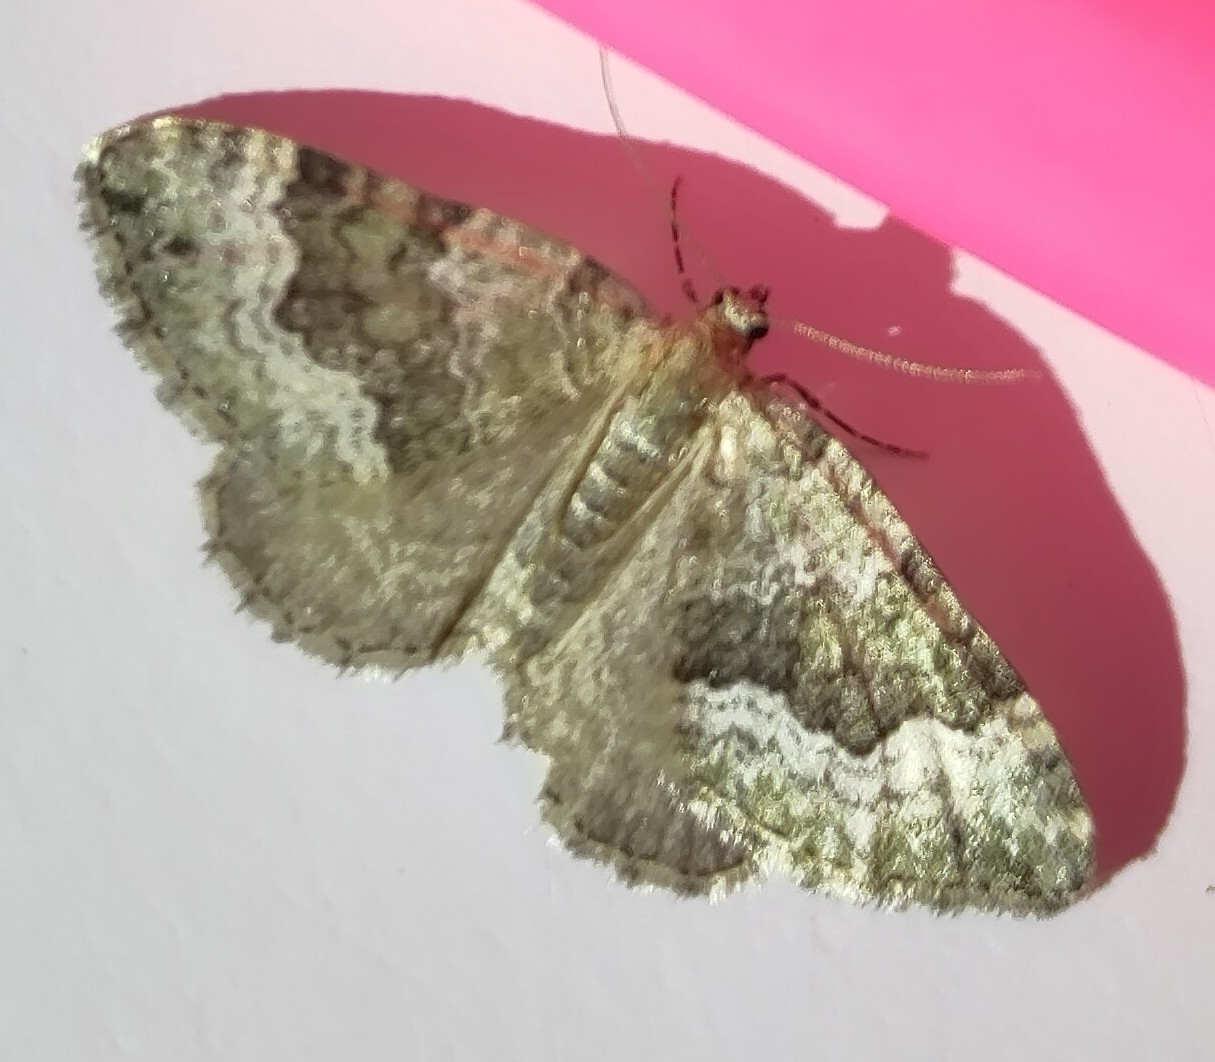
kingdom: Animalia
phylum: Arthropoda
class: Insecta
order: Lepidoptera
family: Geometridae
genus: Colostygia
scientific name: Colostygia aptata
